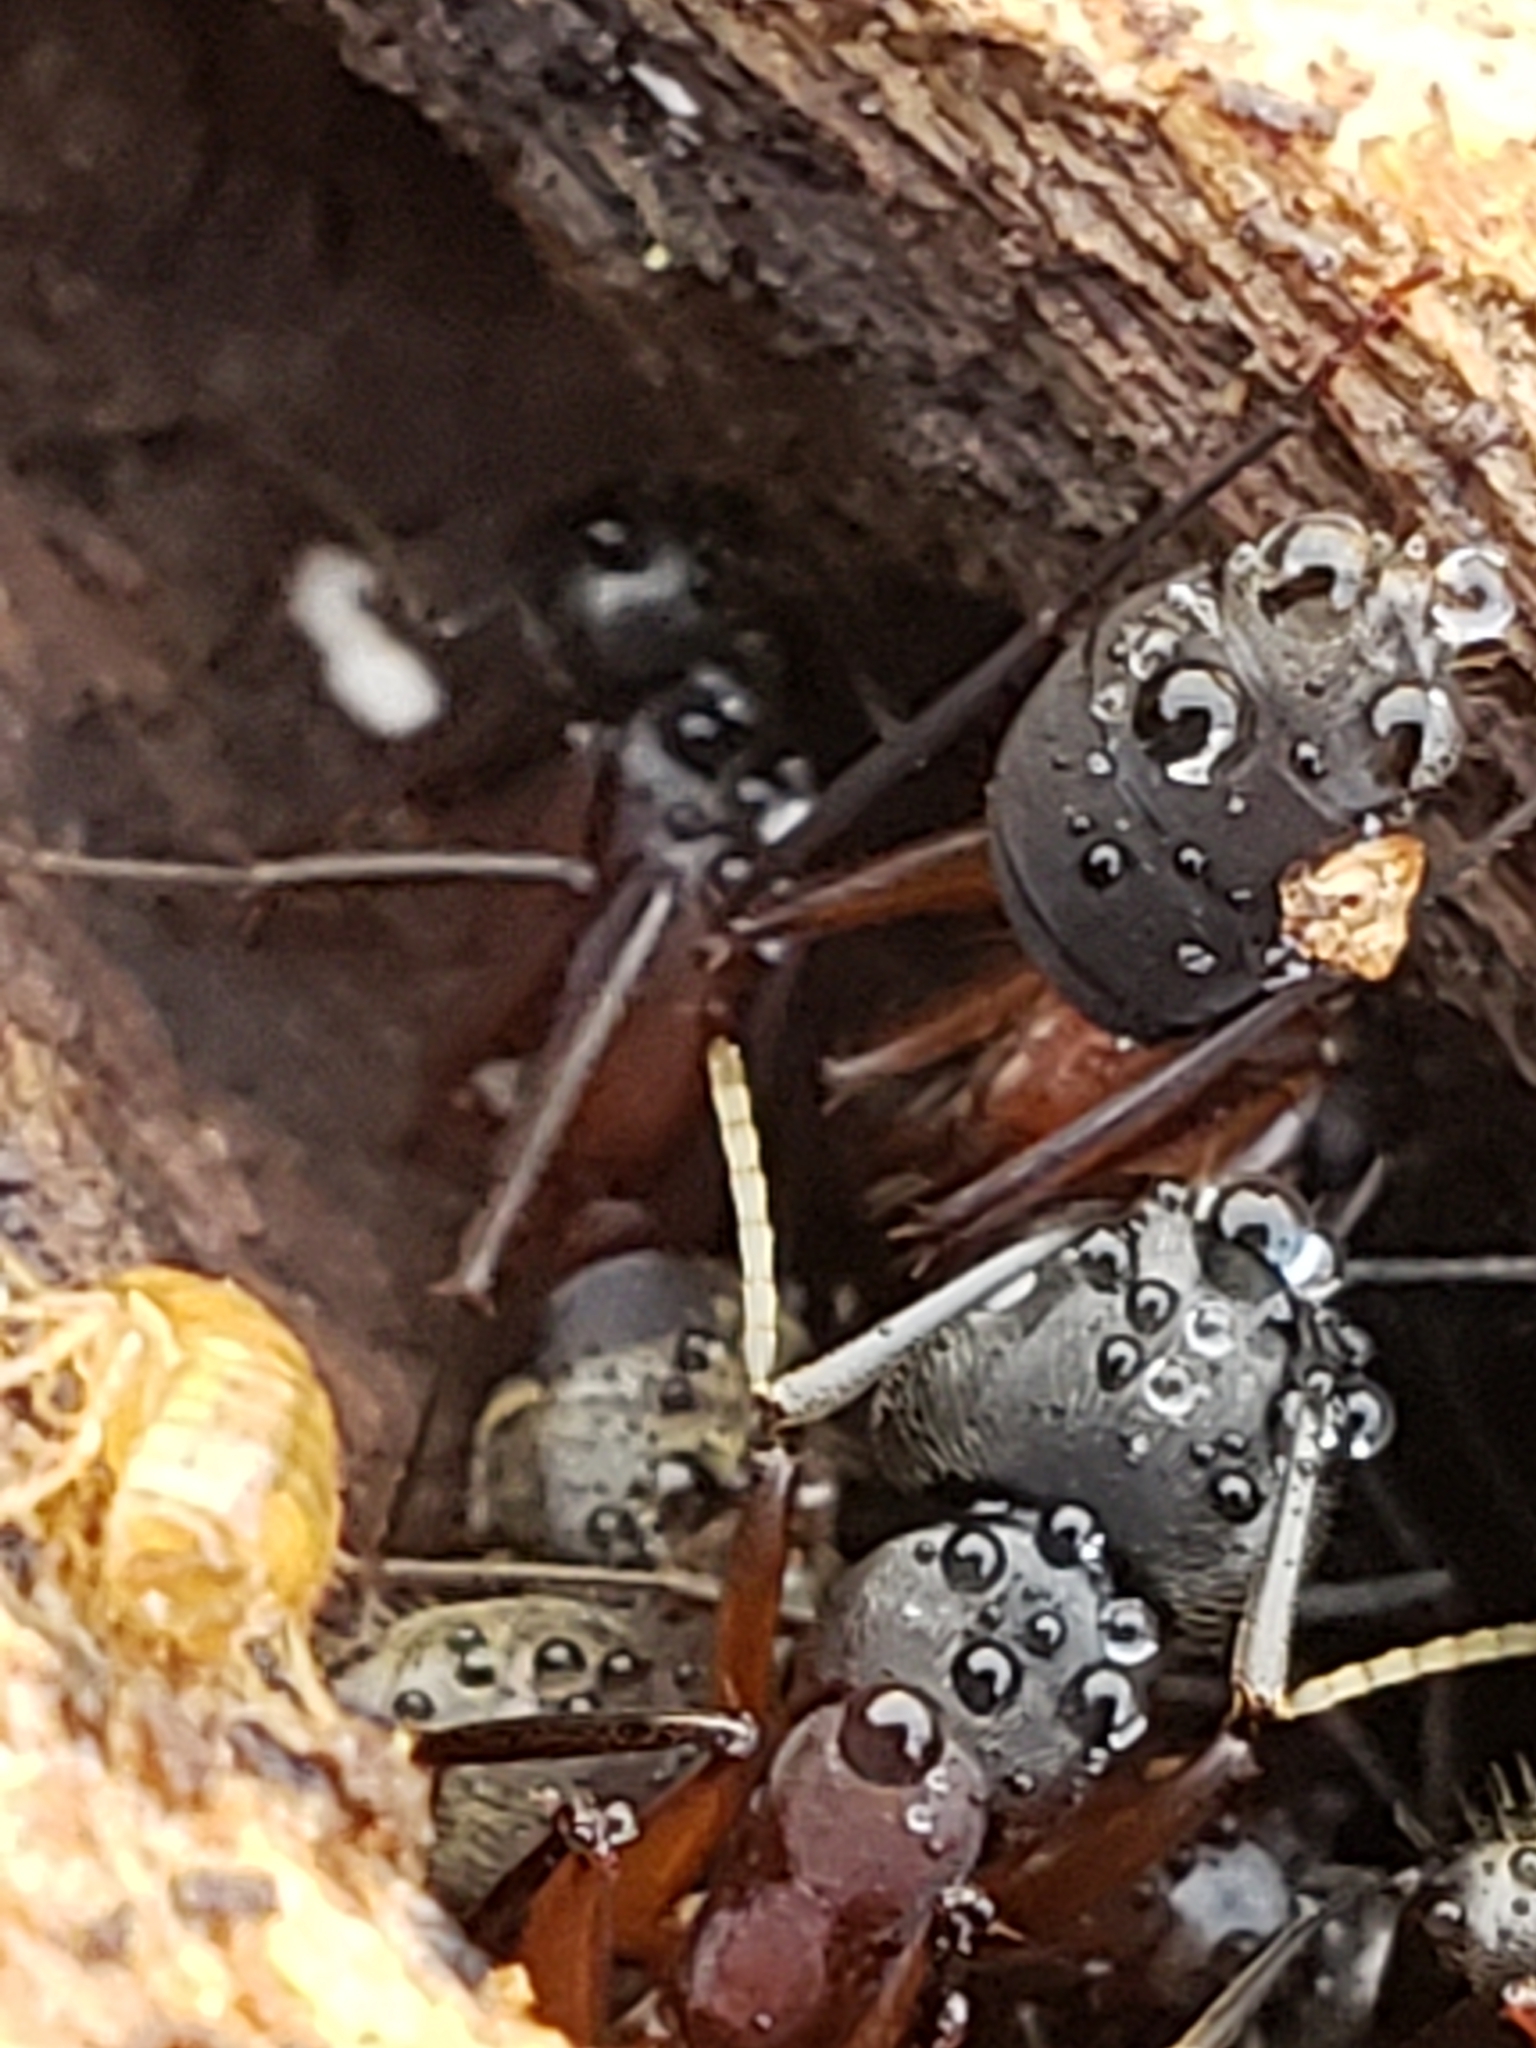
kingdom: Animalia
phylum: Arthropoda
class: Insecta
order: Hymenoptera
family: Formicidae
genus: Camponotus
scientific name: Camponotus chromaiodes
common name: Red carpenter ant
